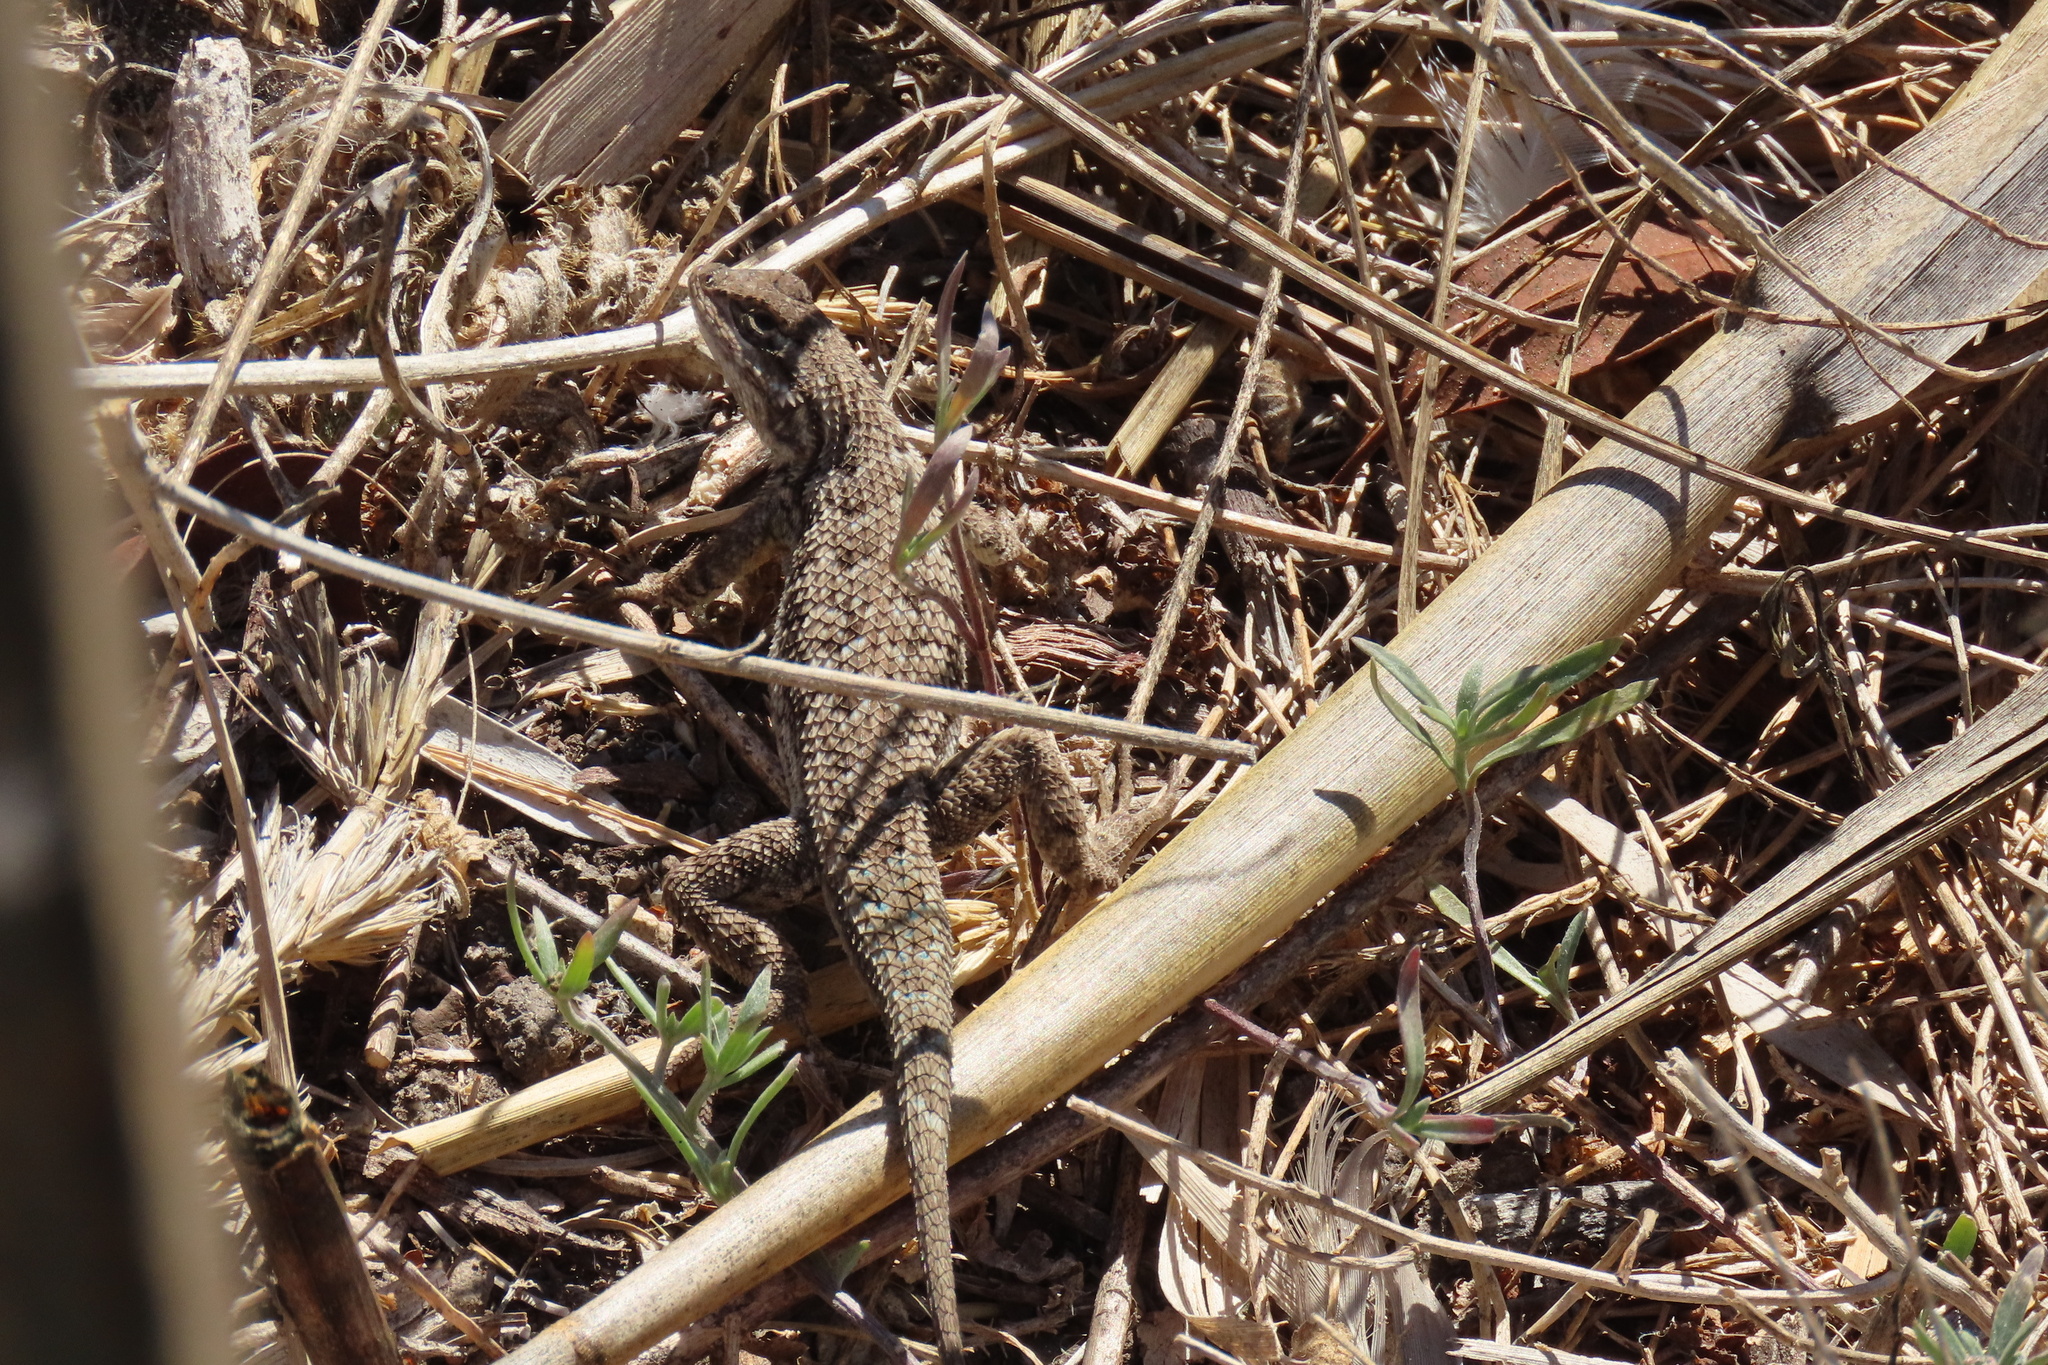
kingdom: Animalia
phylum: Chordata
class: Squamata
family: Phrynosomatidae
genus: Sceloporus
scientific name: Sceloporus occidentalis
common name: Western fence lizard
